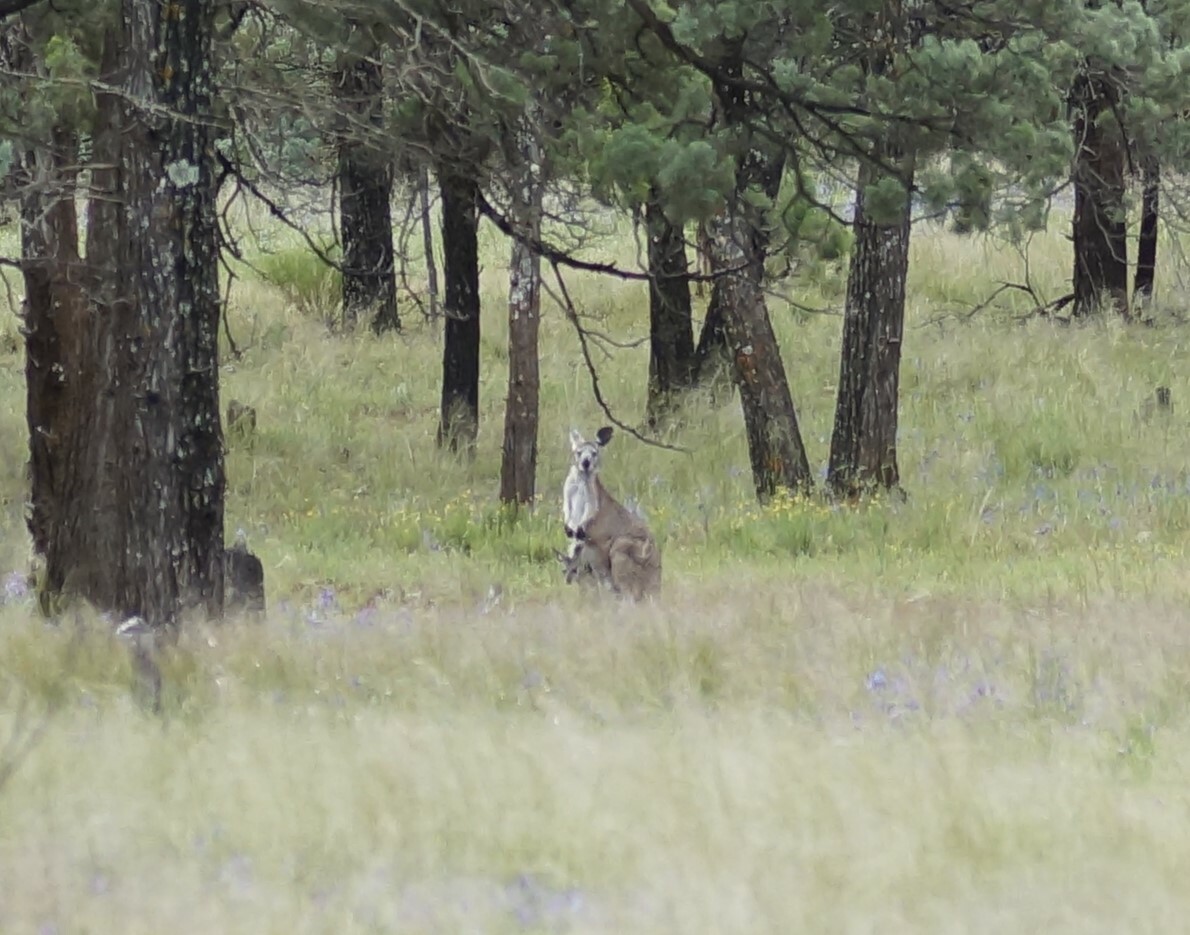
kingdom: Animalia
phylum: Chordata
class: Mammalia
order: Diprotodontia
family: Macropodidae
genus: Macropus
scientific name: Macropus robustus
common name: Eastern wallaroo
